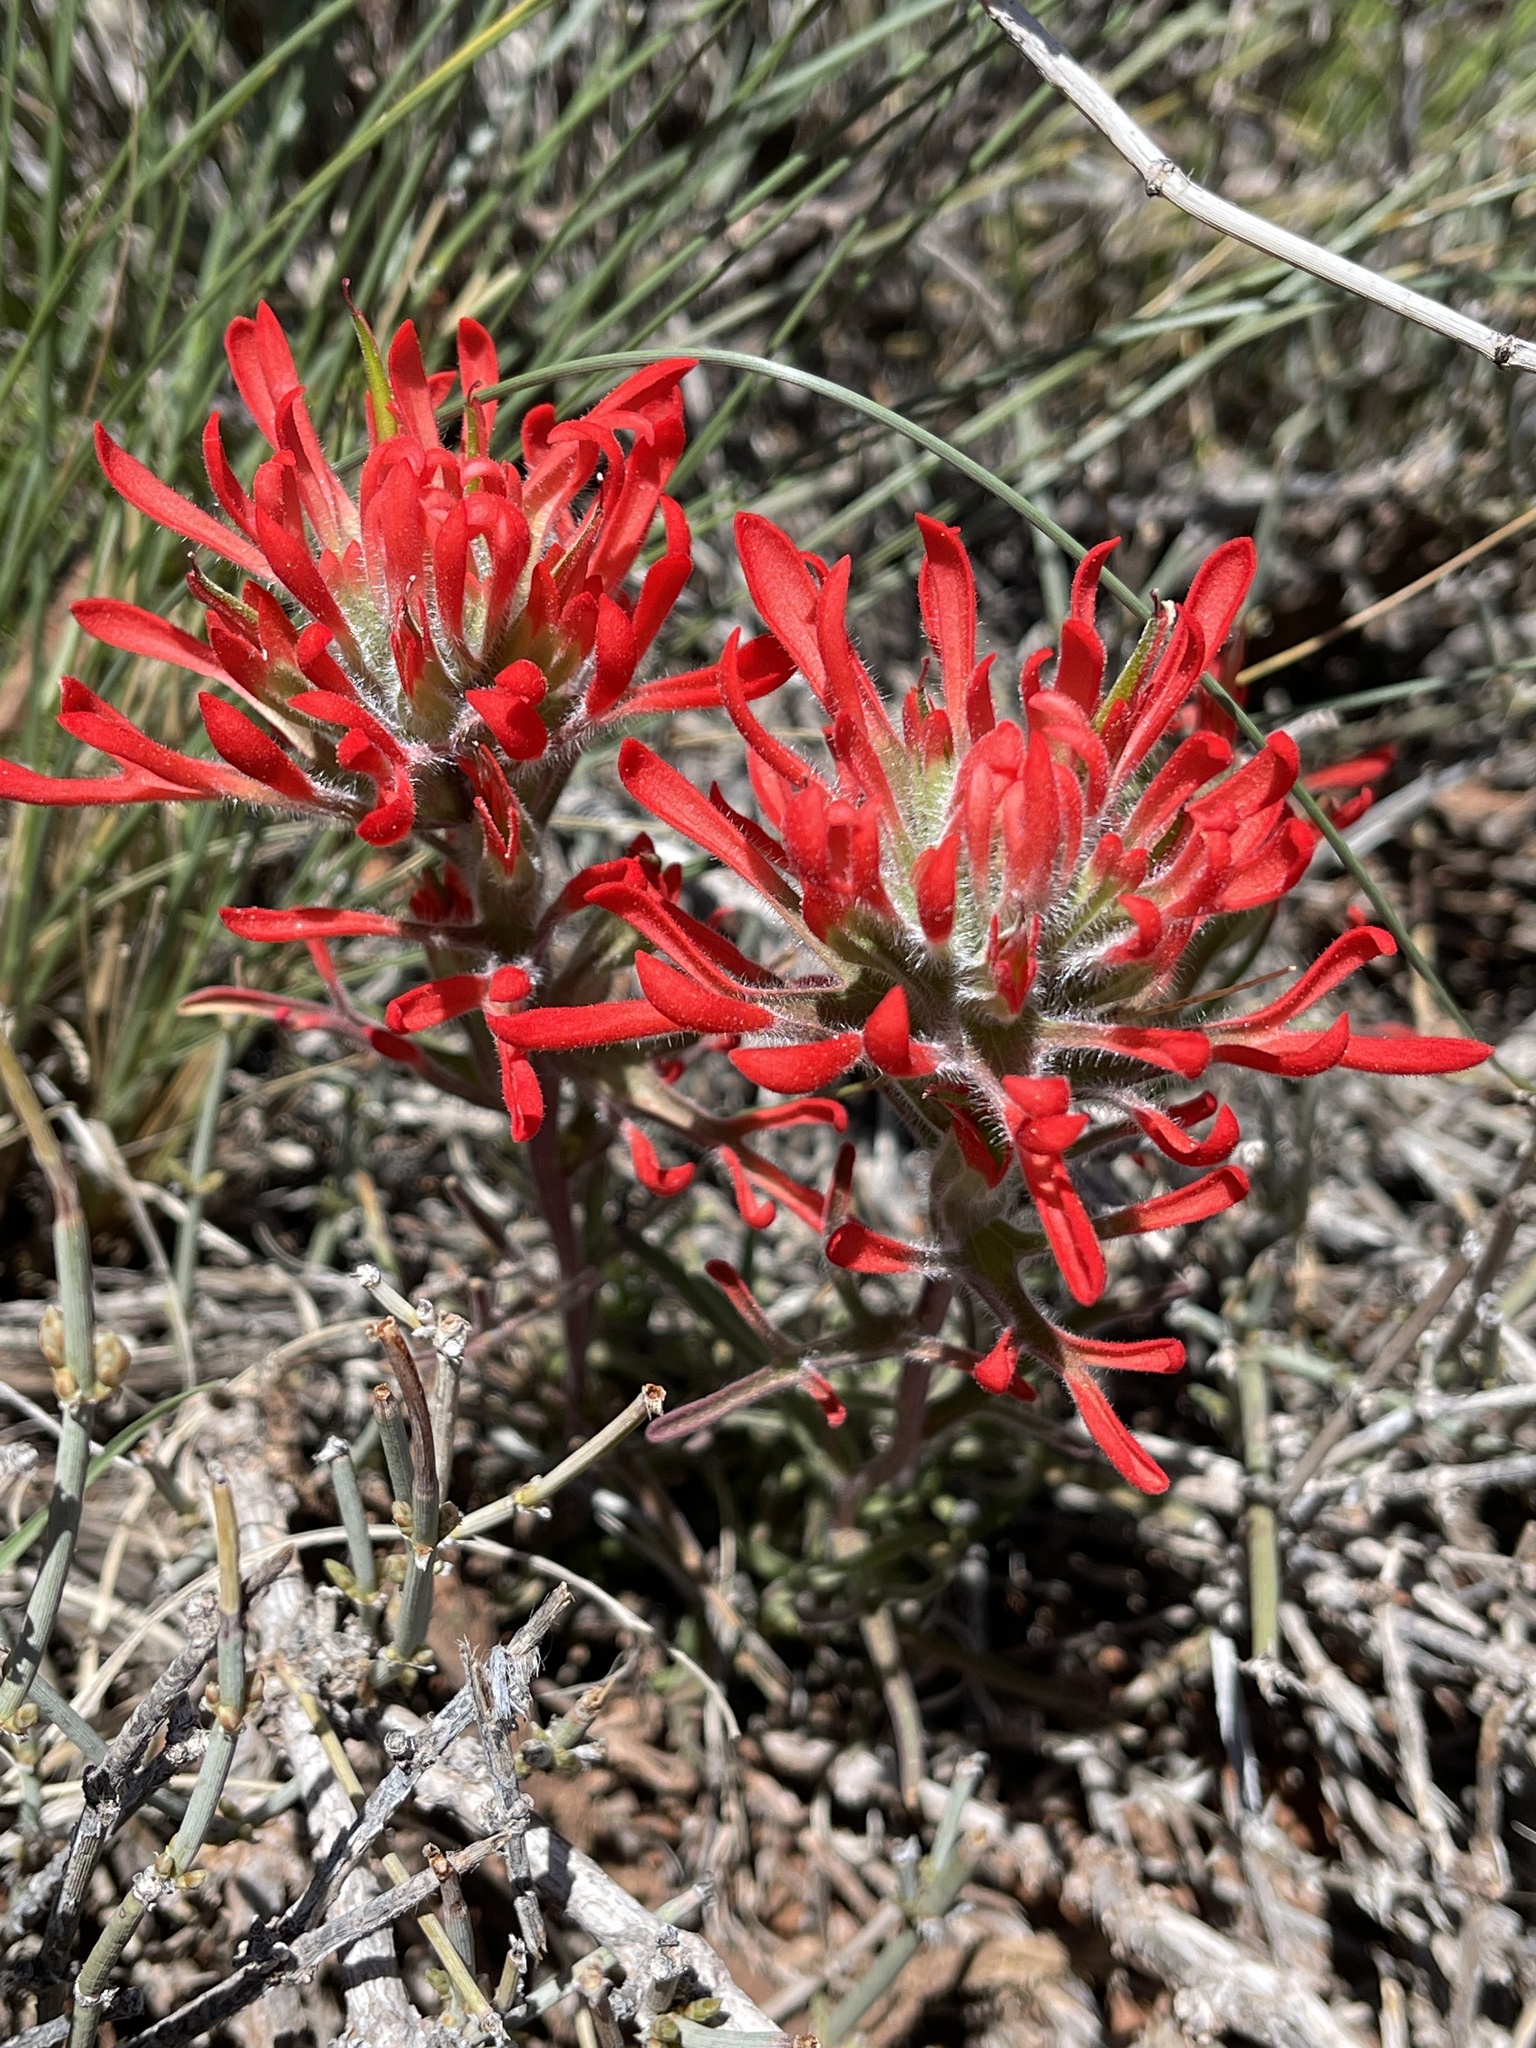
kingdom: Plantae
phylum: Tracheophyta
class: Magnoliopsida
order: Lamiales
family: Orobanchaceae
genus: Castilleja
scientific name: Castilleja chromosa
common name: Desert paintbrush
